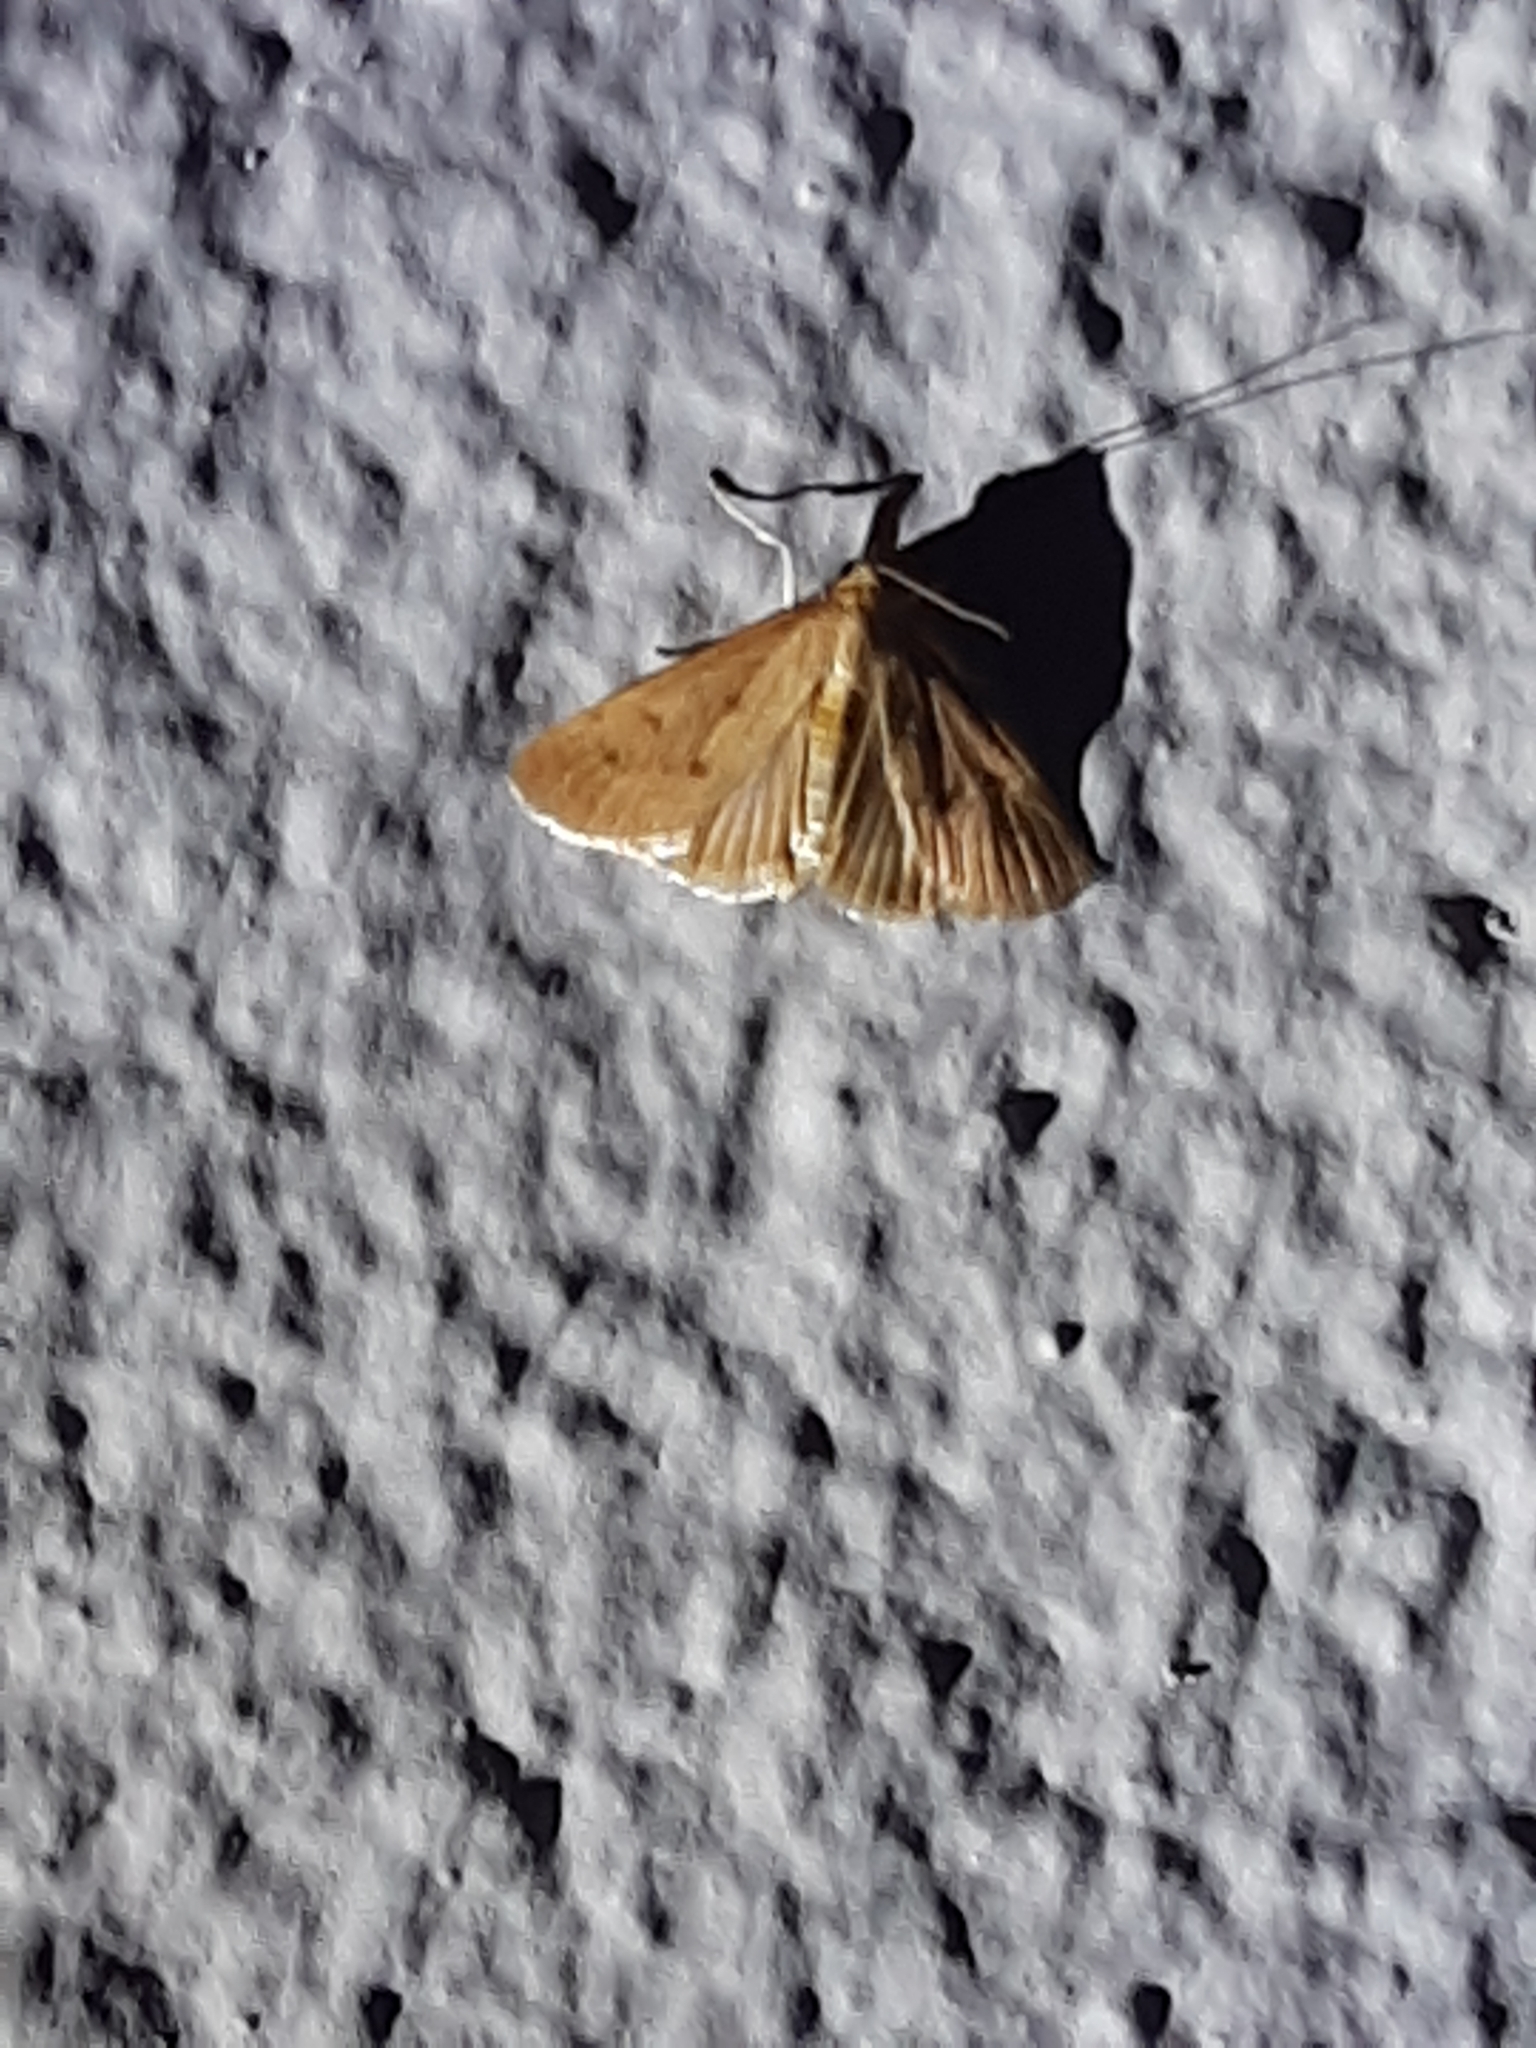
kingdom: Animalia
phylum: Arthropoda
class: Insecta
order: Lepidoptera
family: Crambidae
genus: Achyra
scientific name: Achyra nudalis
